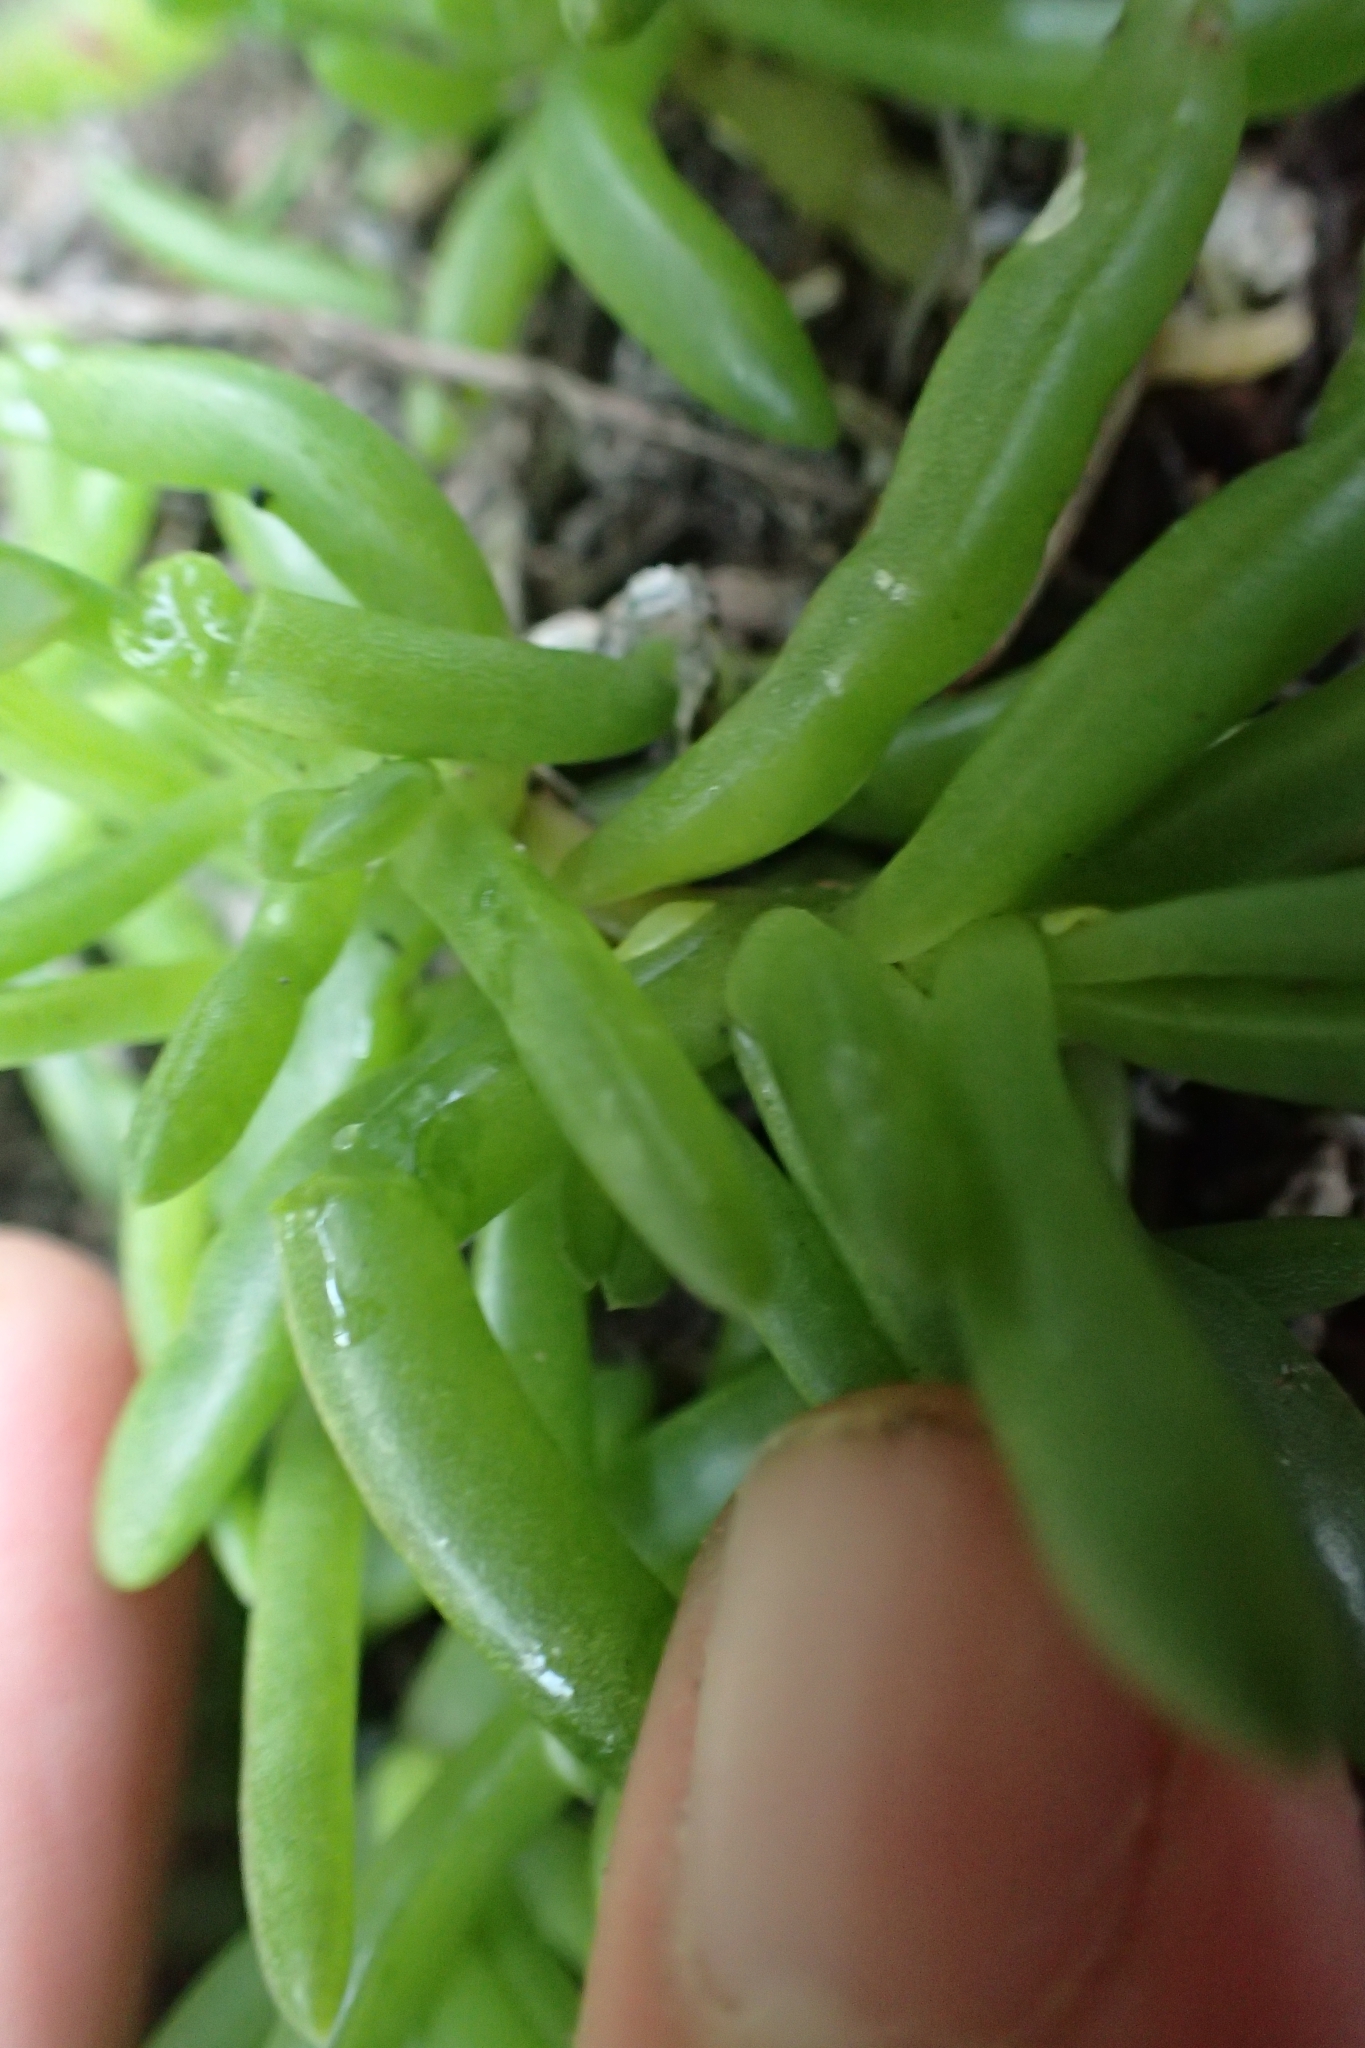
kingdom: Plantae
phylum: Tracheophyta
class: Magnoliopsida
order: Caryophyllales
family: Aizoaceae
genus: Disphyma
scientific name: Disphyma australe
